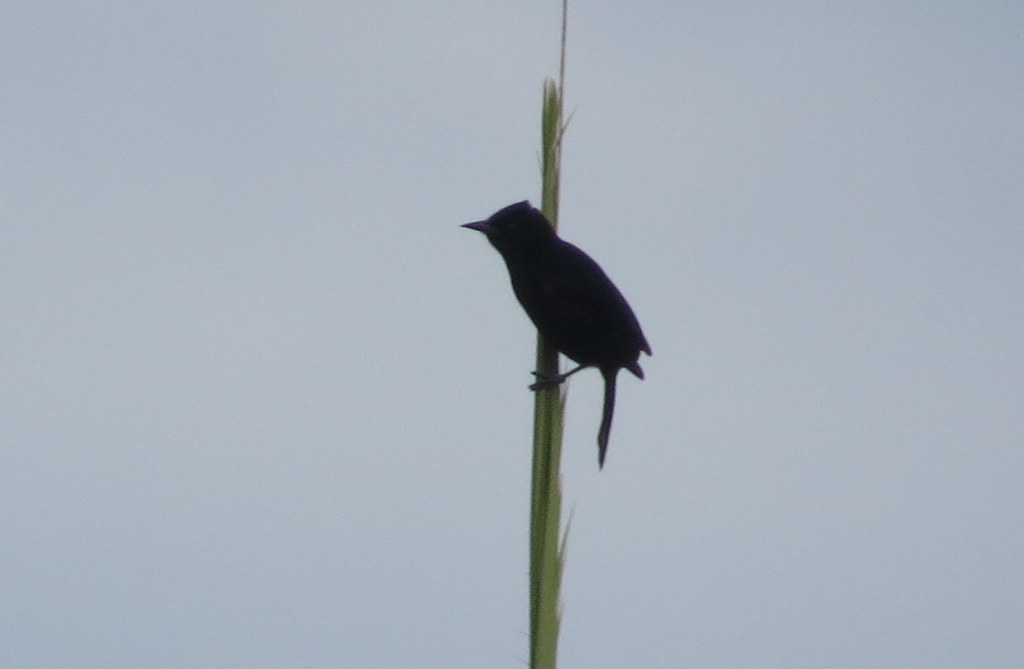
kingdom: Animalia
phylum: Chordata
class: Aves
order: Passeriformes
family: Icteridae
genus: Icterus
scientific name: Icterus cayanensis
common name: Epaulet oriole
